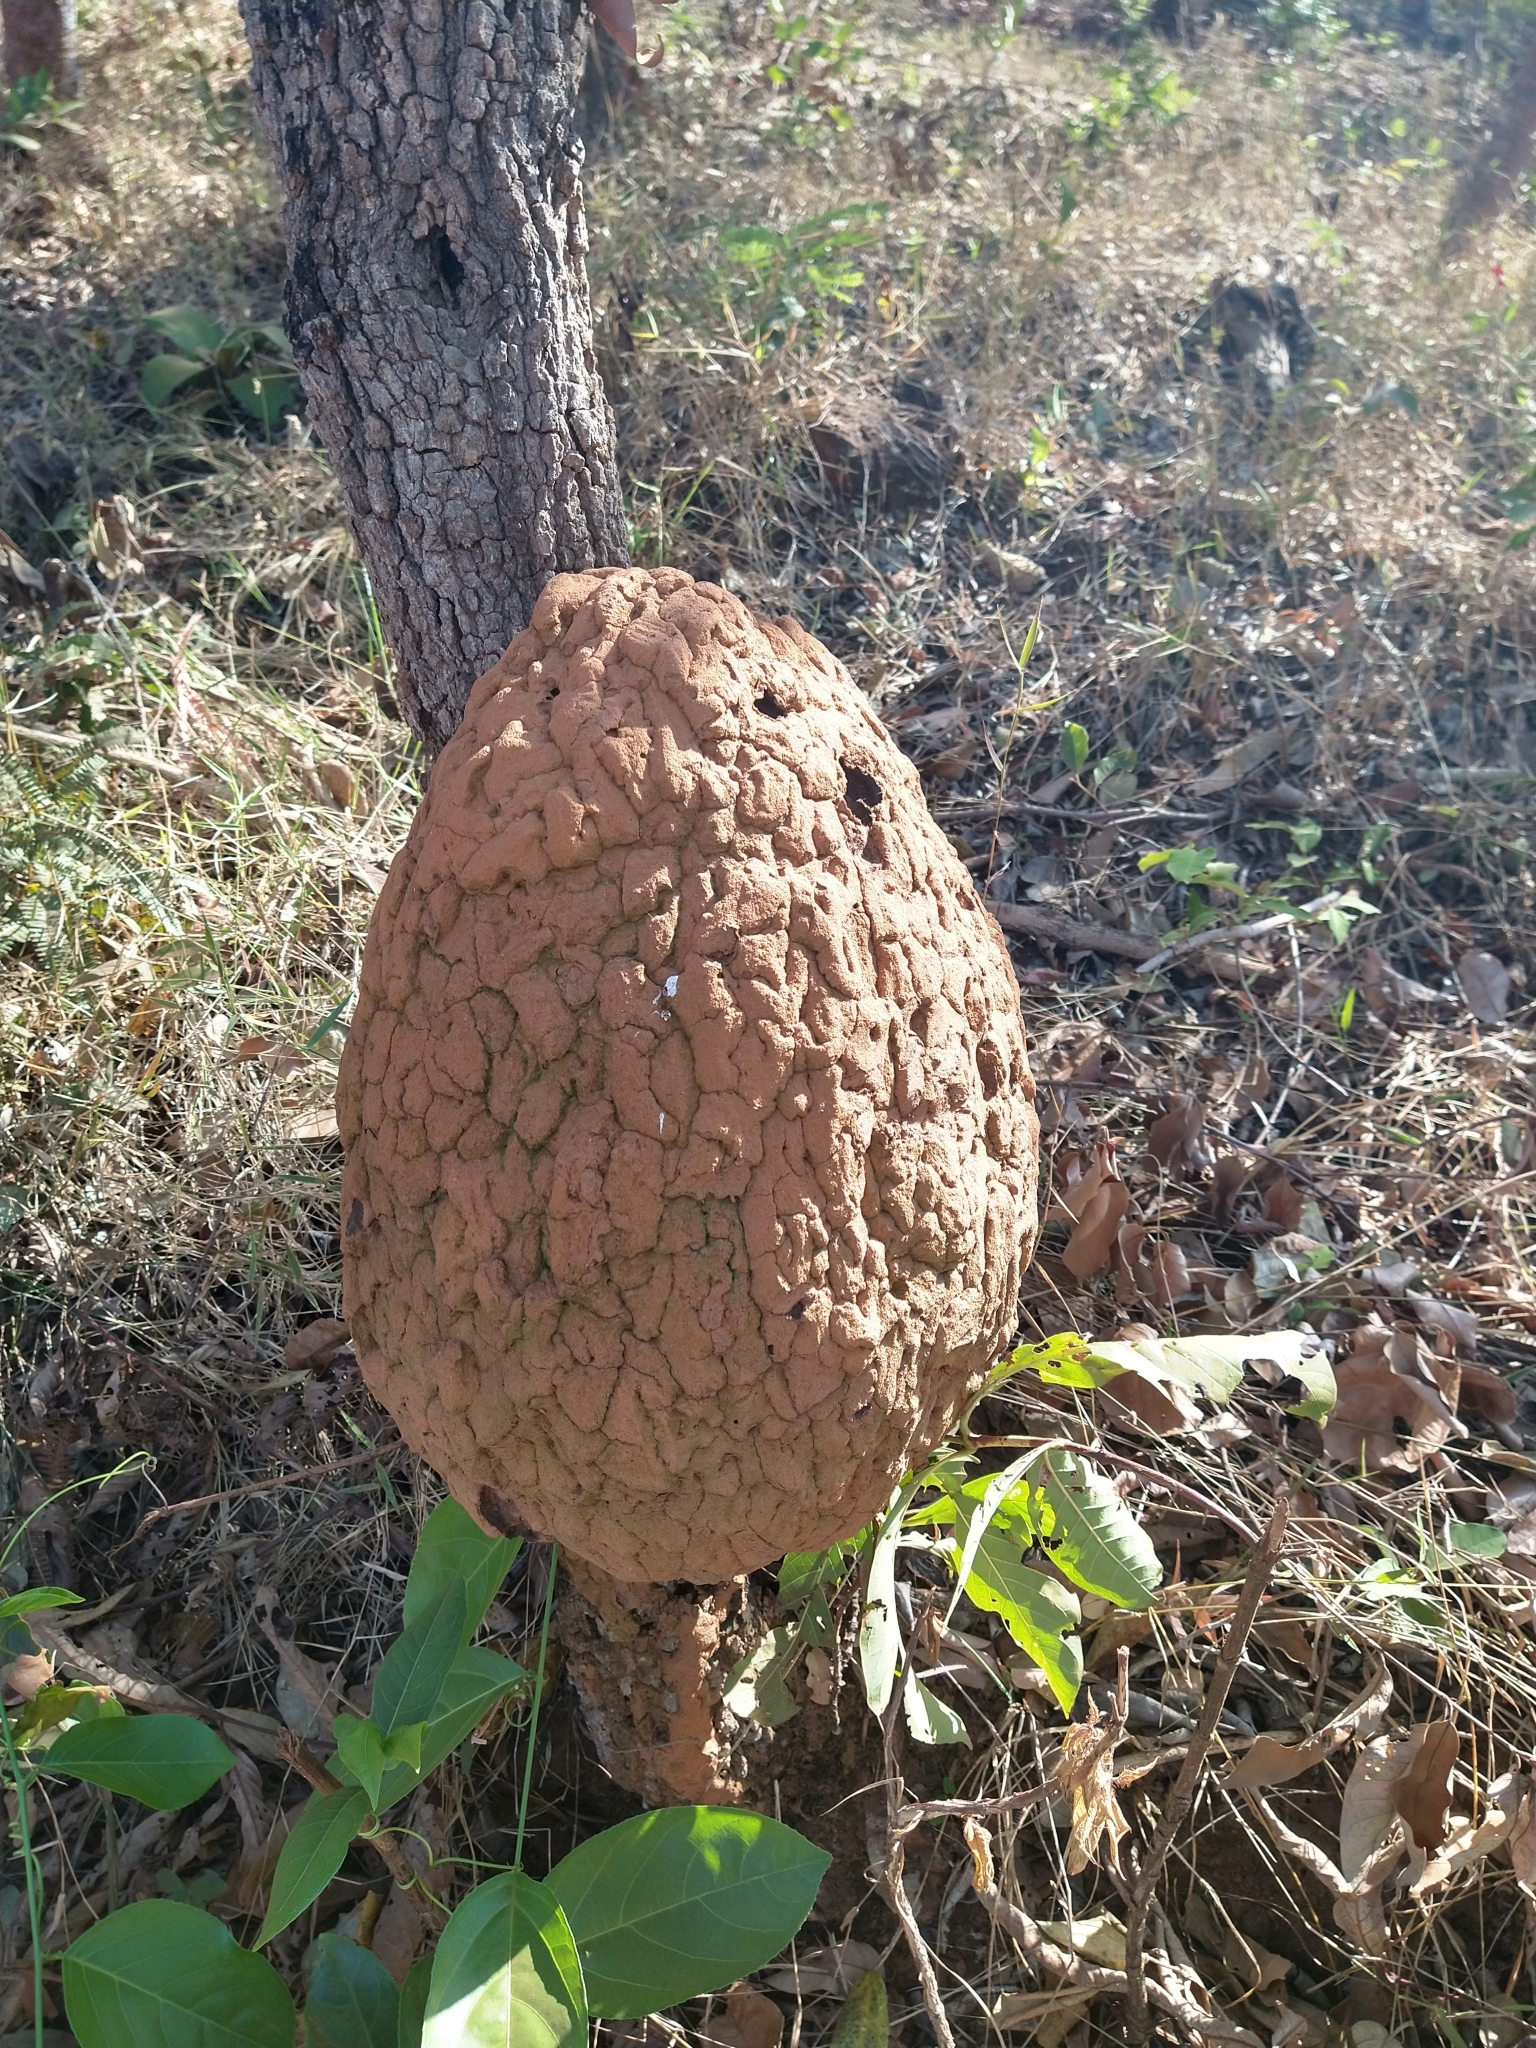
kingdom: Animalia
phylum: Arthropoda
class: Insecta
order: Blattodea
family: Termitidae
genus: Constrictotermes
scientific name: Constrictotermes cyphergaster
